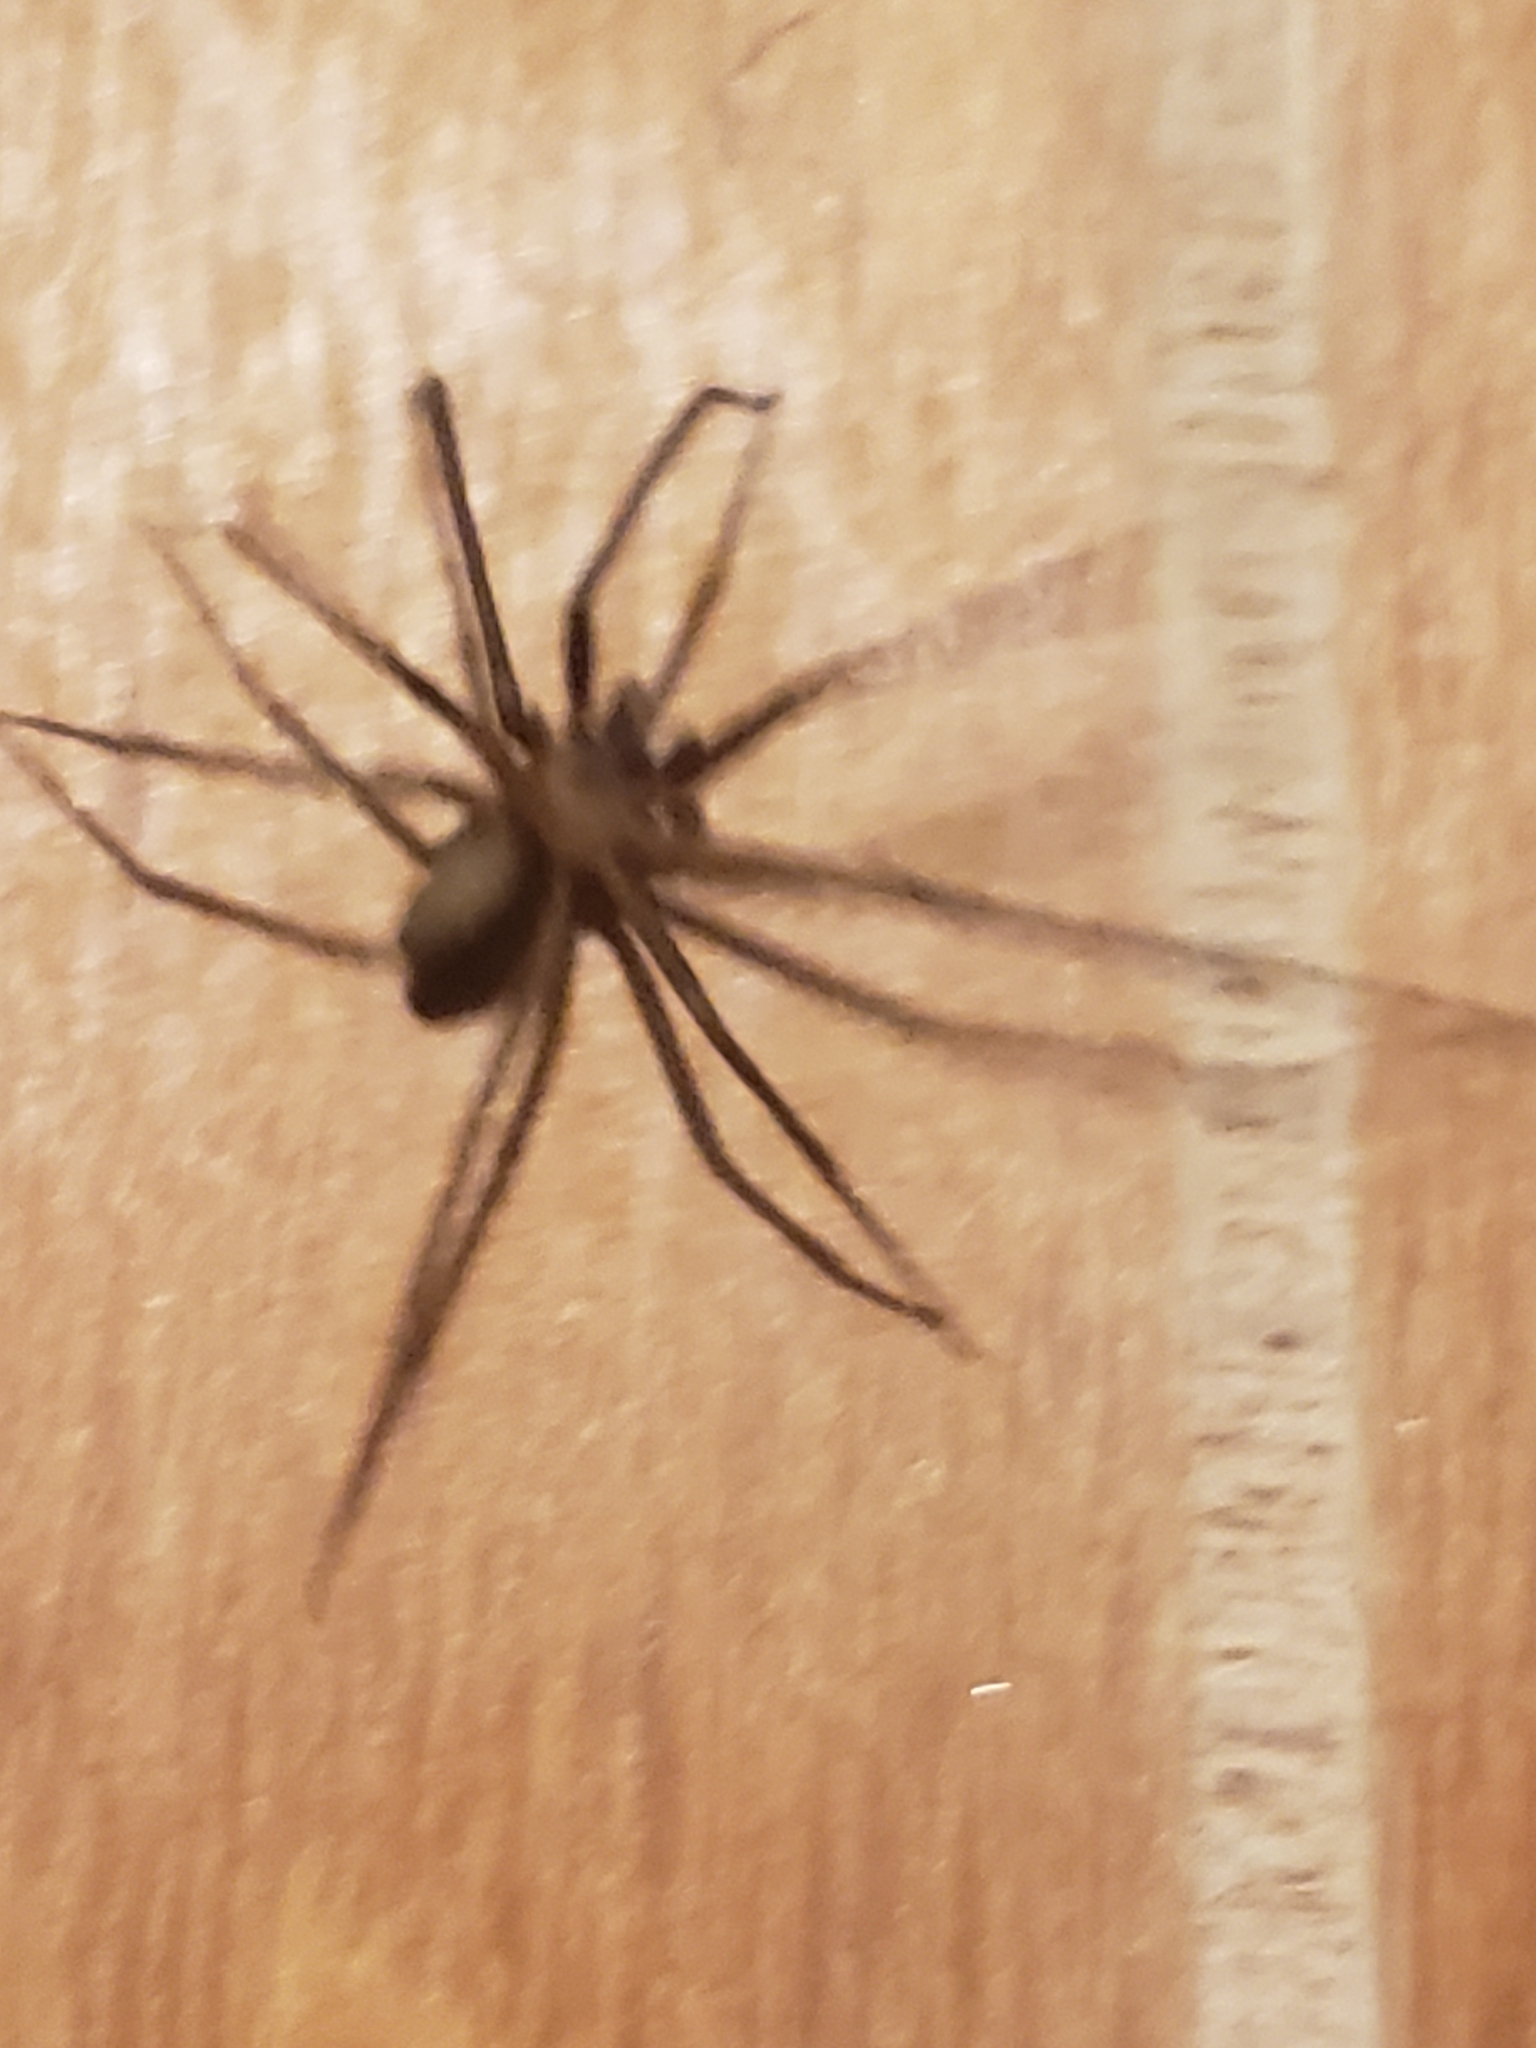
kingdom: Animalia
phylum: Arthropoda
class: Arachnida
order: Araneae
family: Sicariidae
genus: Loxosceles
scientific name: Loxosceles reclusa
